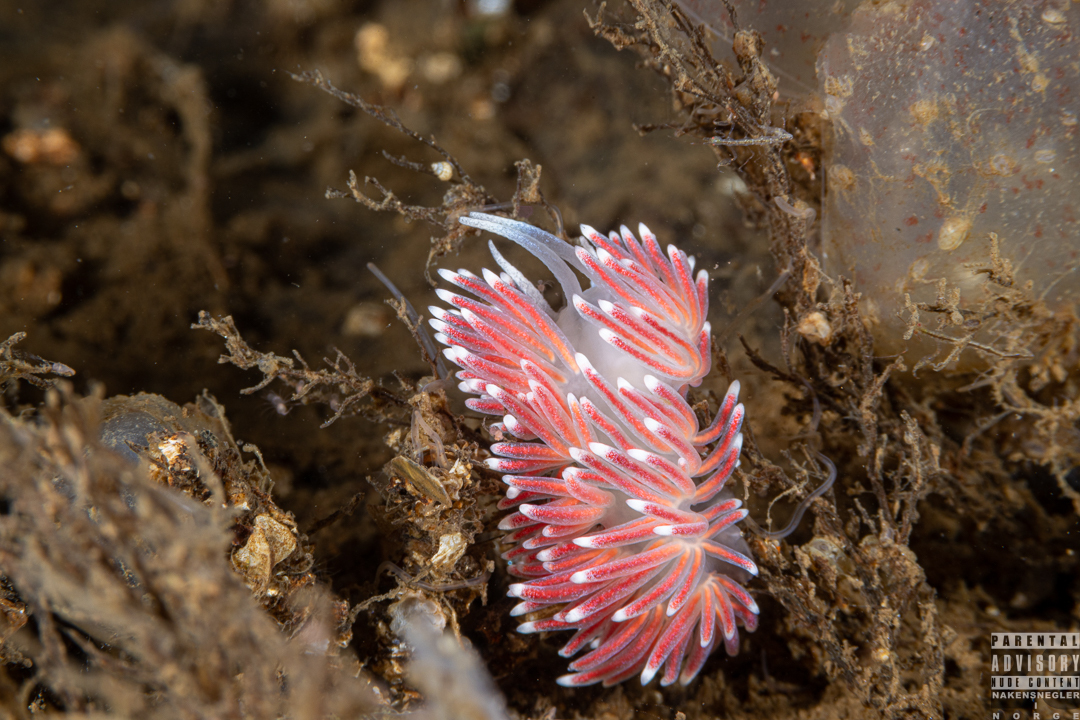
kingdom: Animalia
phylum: Mollusca
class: Gastropoda
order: Nudibranchia
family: Flabellinidae
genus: Carronella
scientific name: Carronella pellucida
